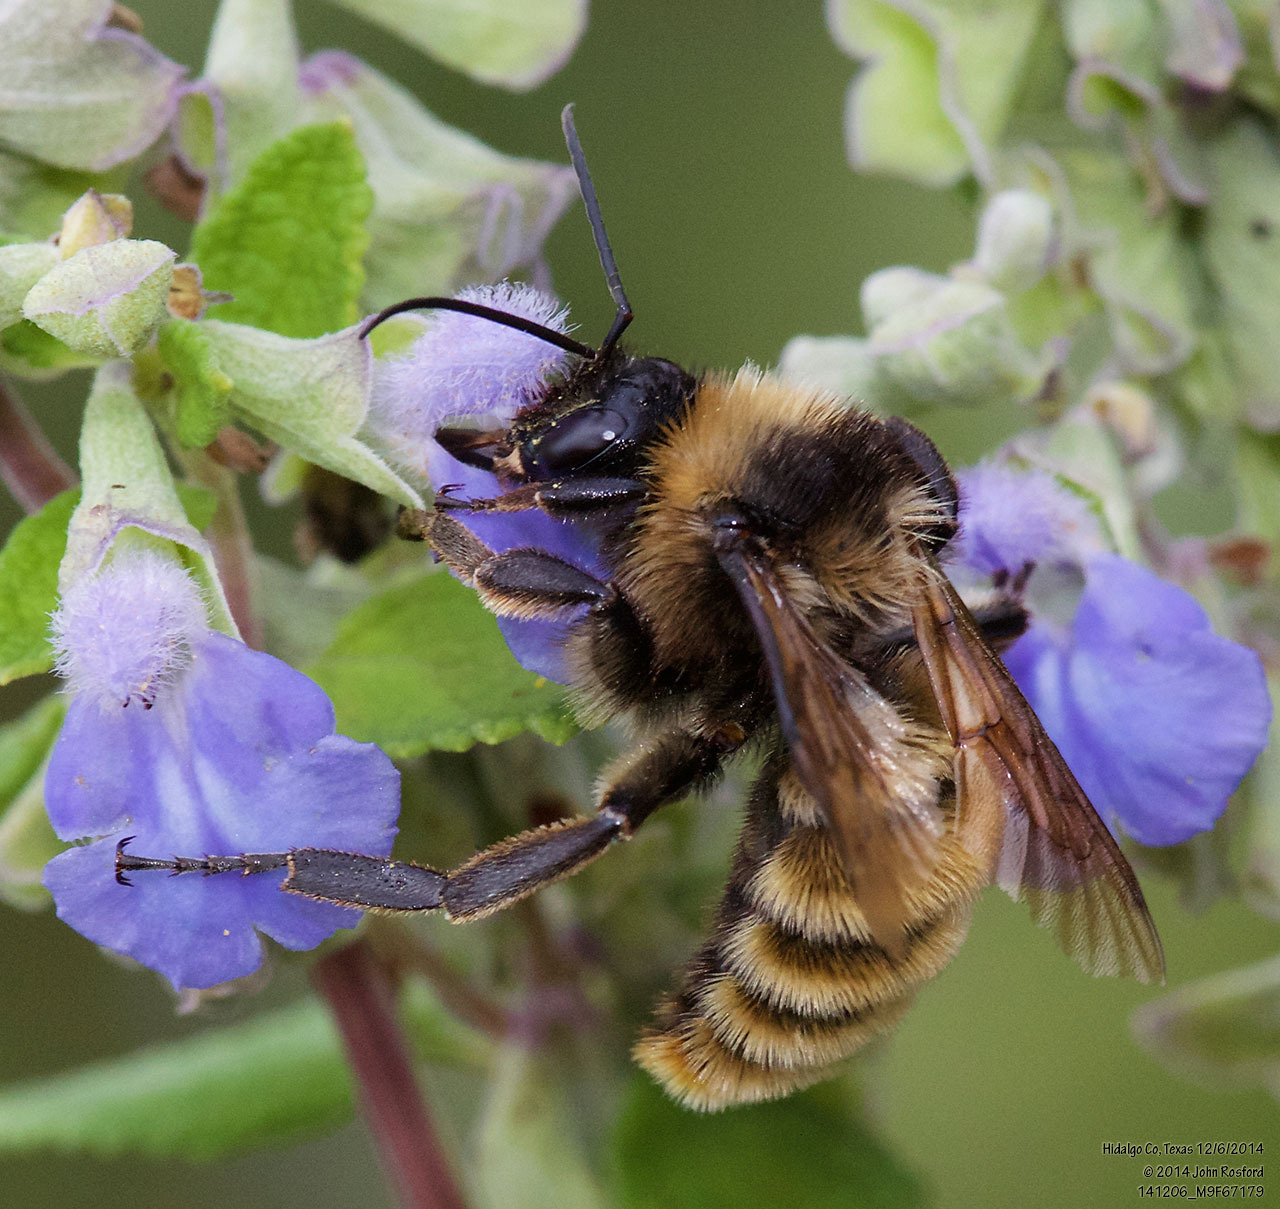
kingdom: Animalia
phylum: Arthropoda
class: Insecta
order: Hymenoptera
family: Apidae
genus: Bombus
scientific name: Bombus pensylvanicus
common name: Bumble bee
